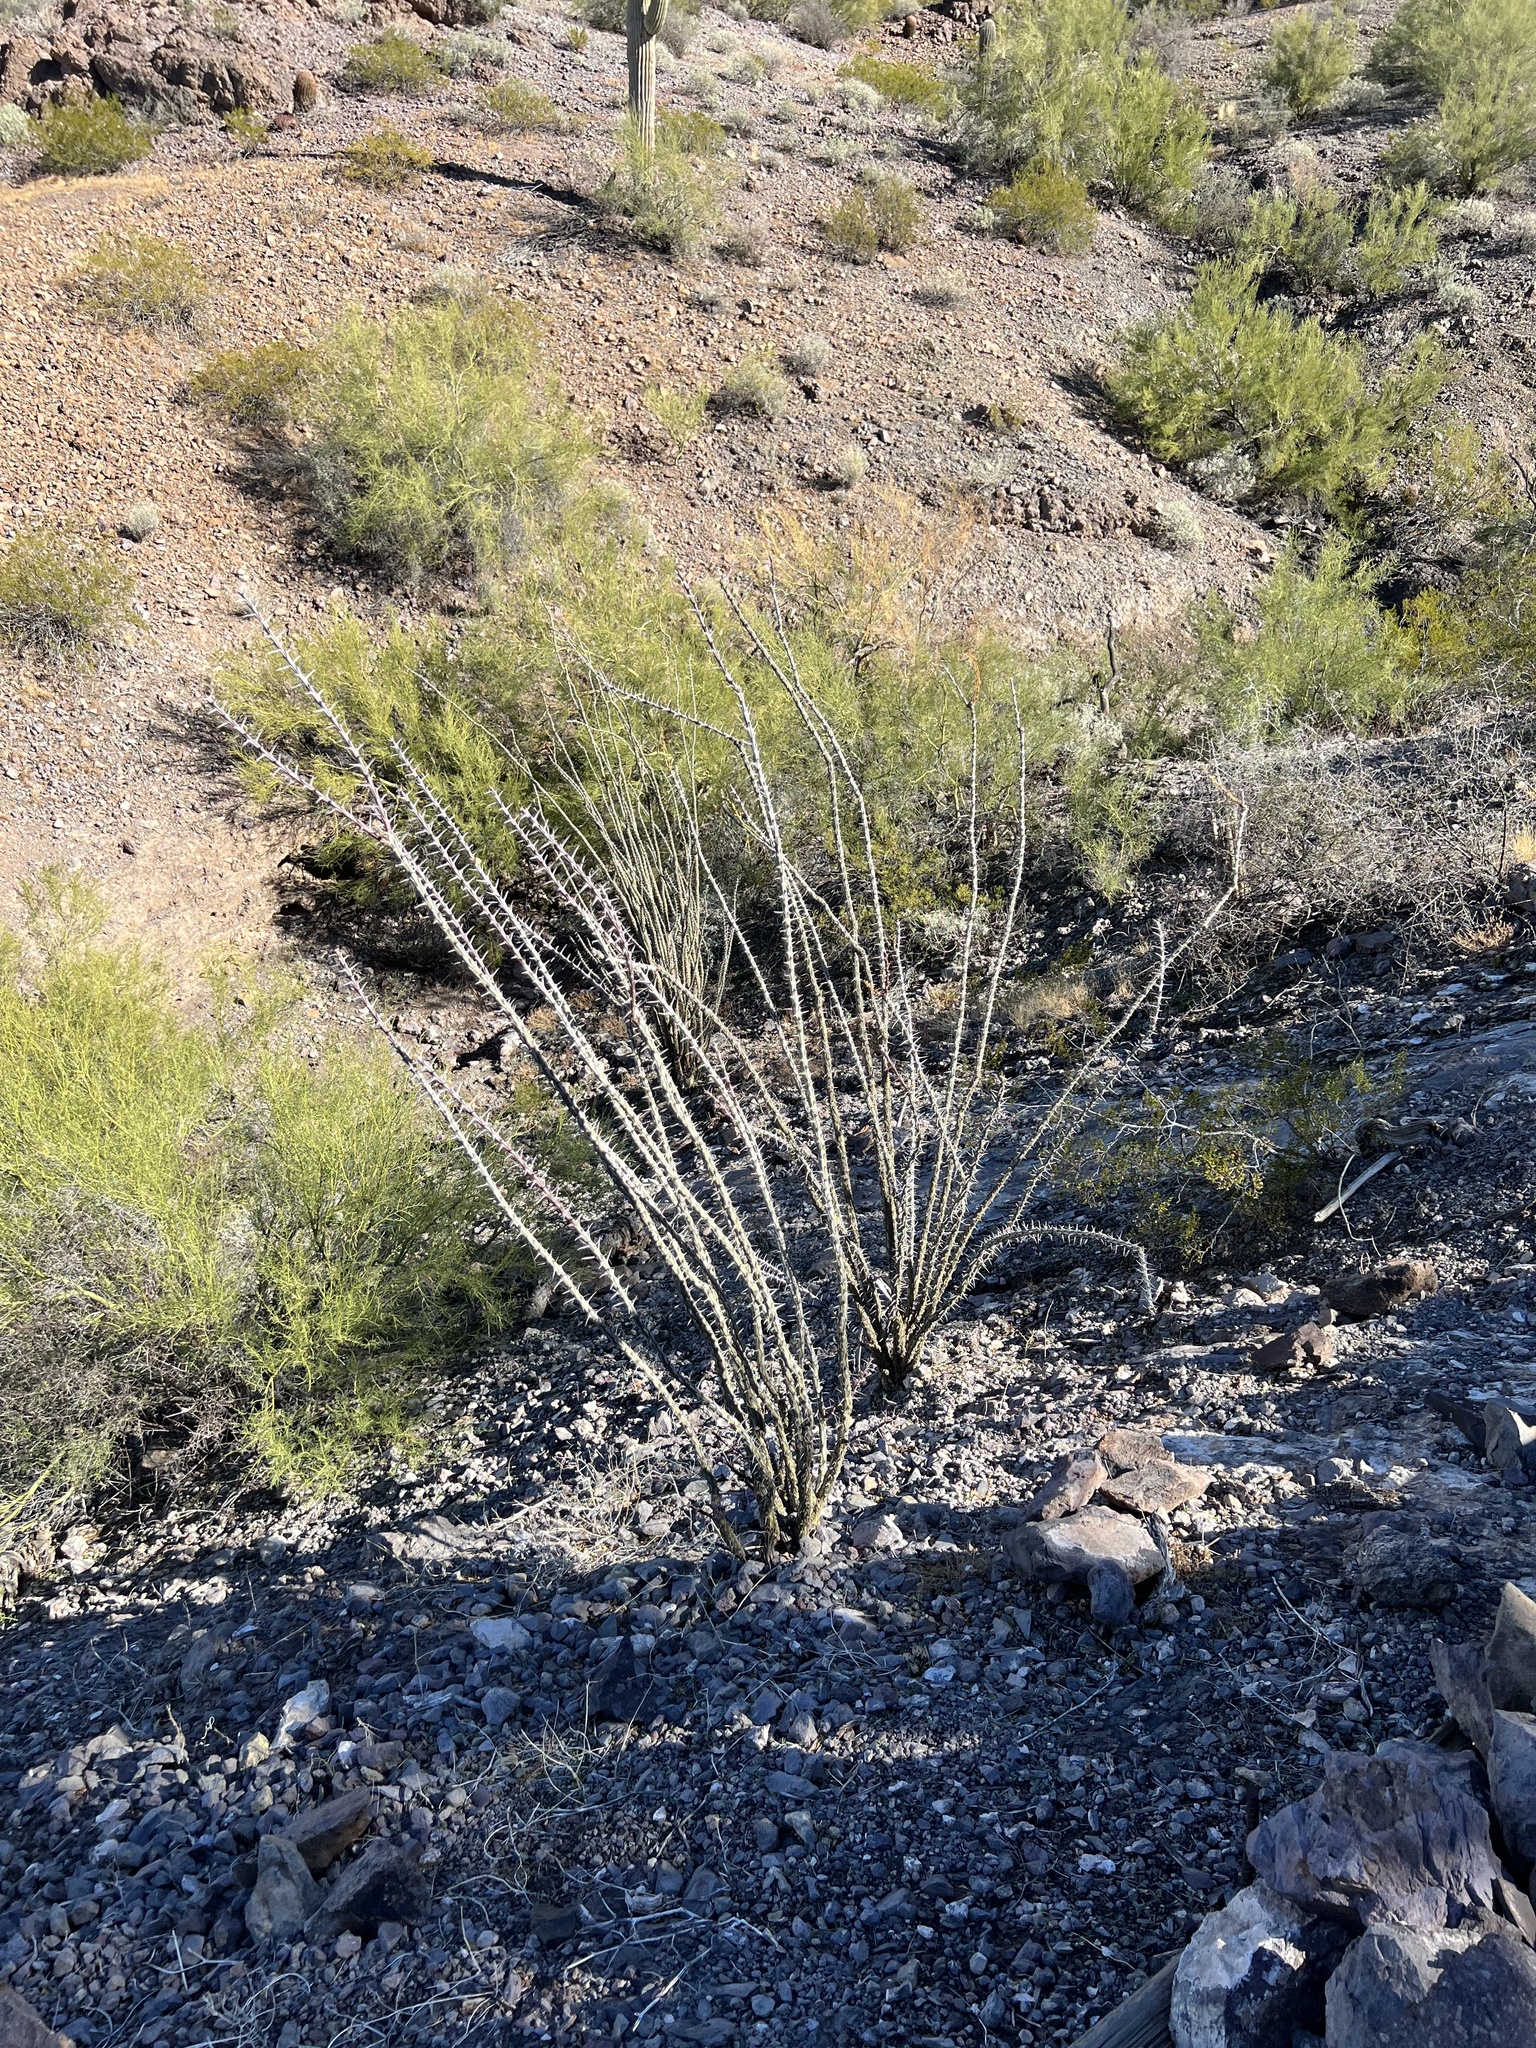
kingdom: Plantae
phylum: Tracheophyta
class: Magnoliopsida
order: Ericales
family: Fouquieriaceae
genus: Fouquieria
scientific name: Fouquieria splendens
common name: Vine-cactus
